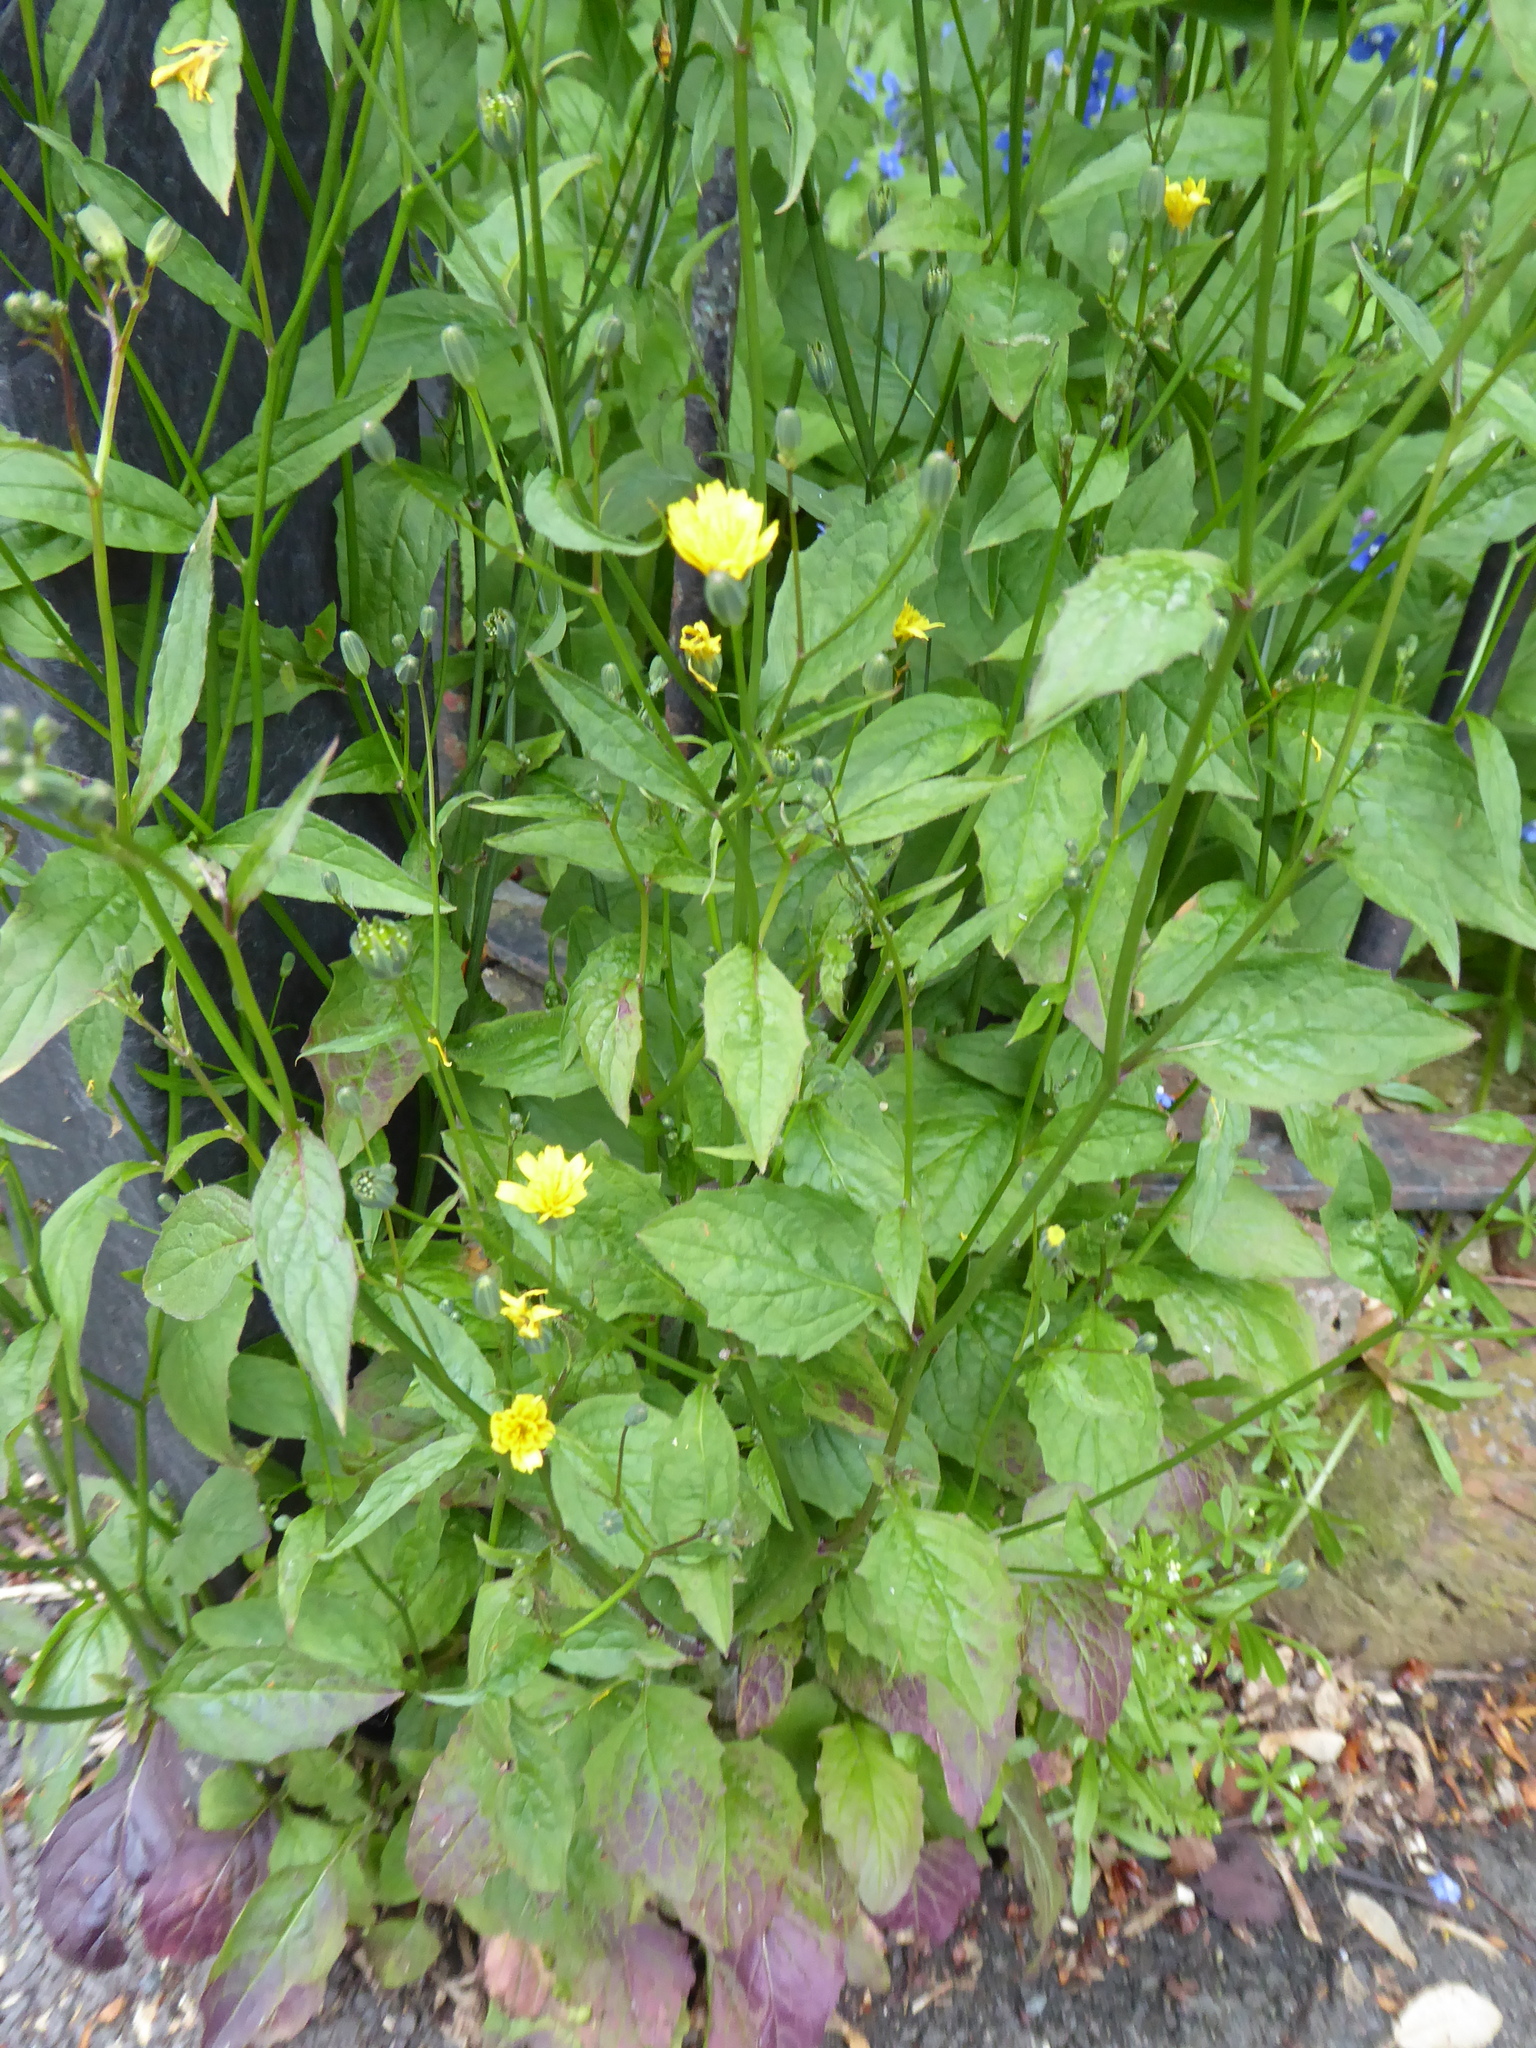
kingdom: Plantae
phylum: Tracheophyta
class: Magnoliopsida
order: Asterales
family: Asteraceae
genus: Lapsana
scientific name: Lapsana communis
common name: Nipplewort
